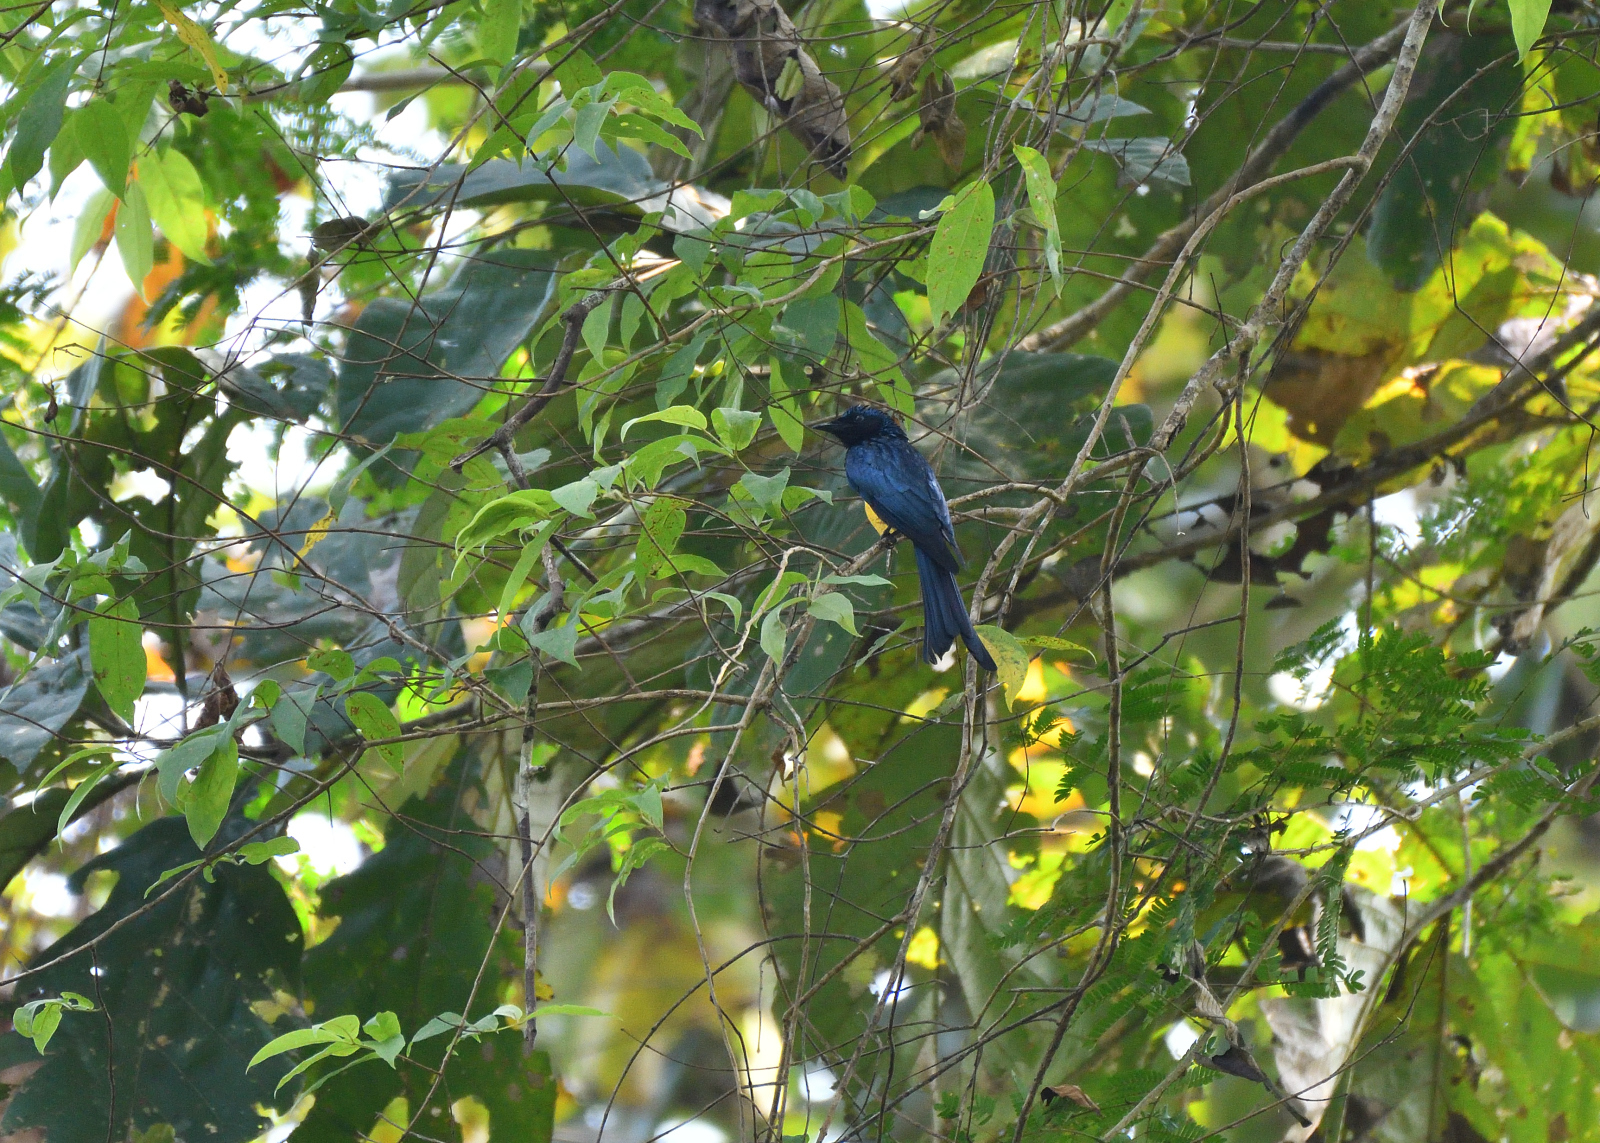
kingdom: Animalia
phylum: Chordata
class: Aves
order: Passeriformes
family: Dicruridae
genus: Dicrurus
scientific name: Dicrurus aeneus
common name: Bronzed drongo
